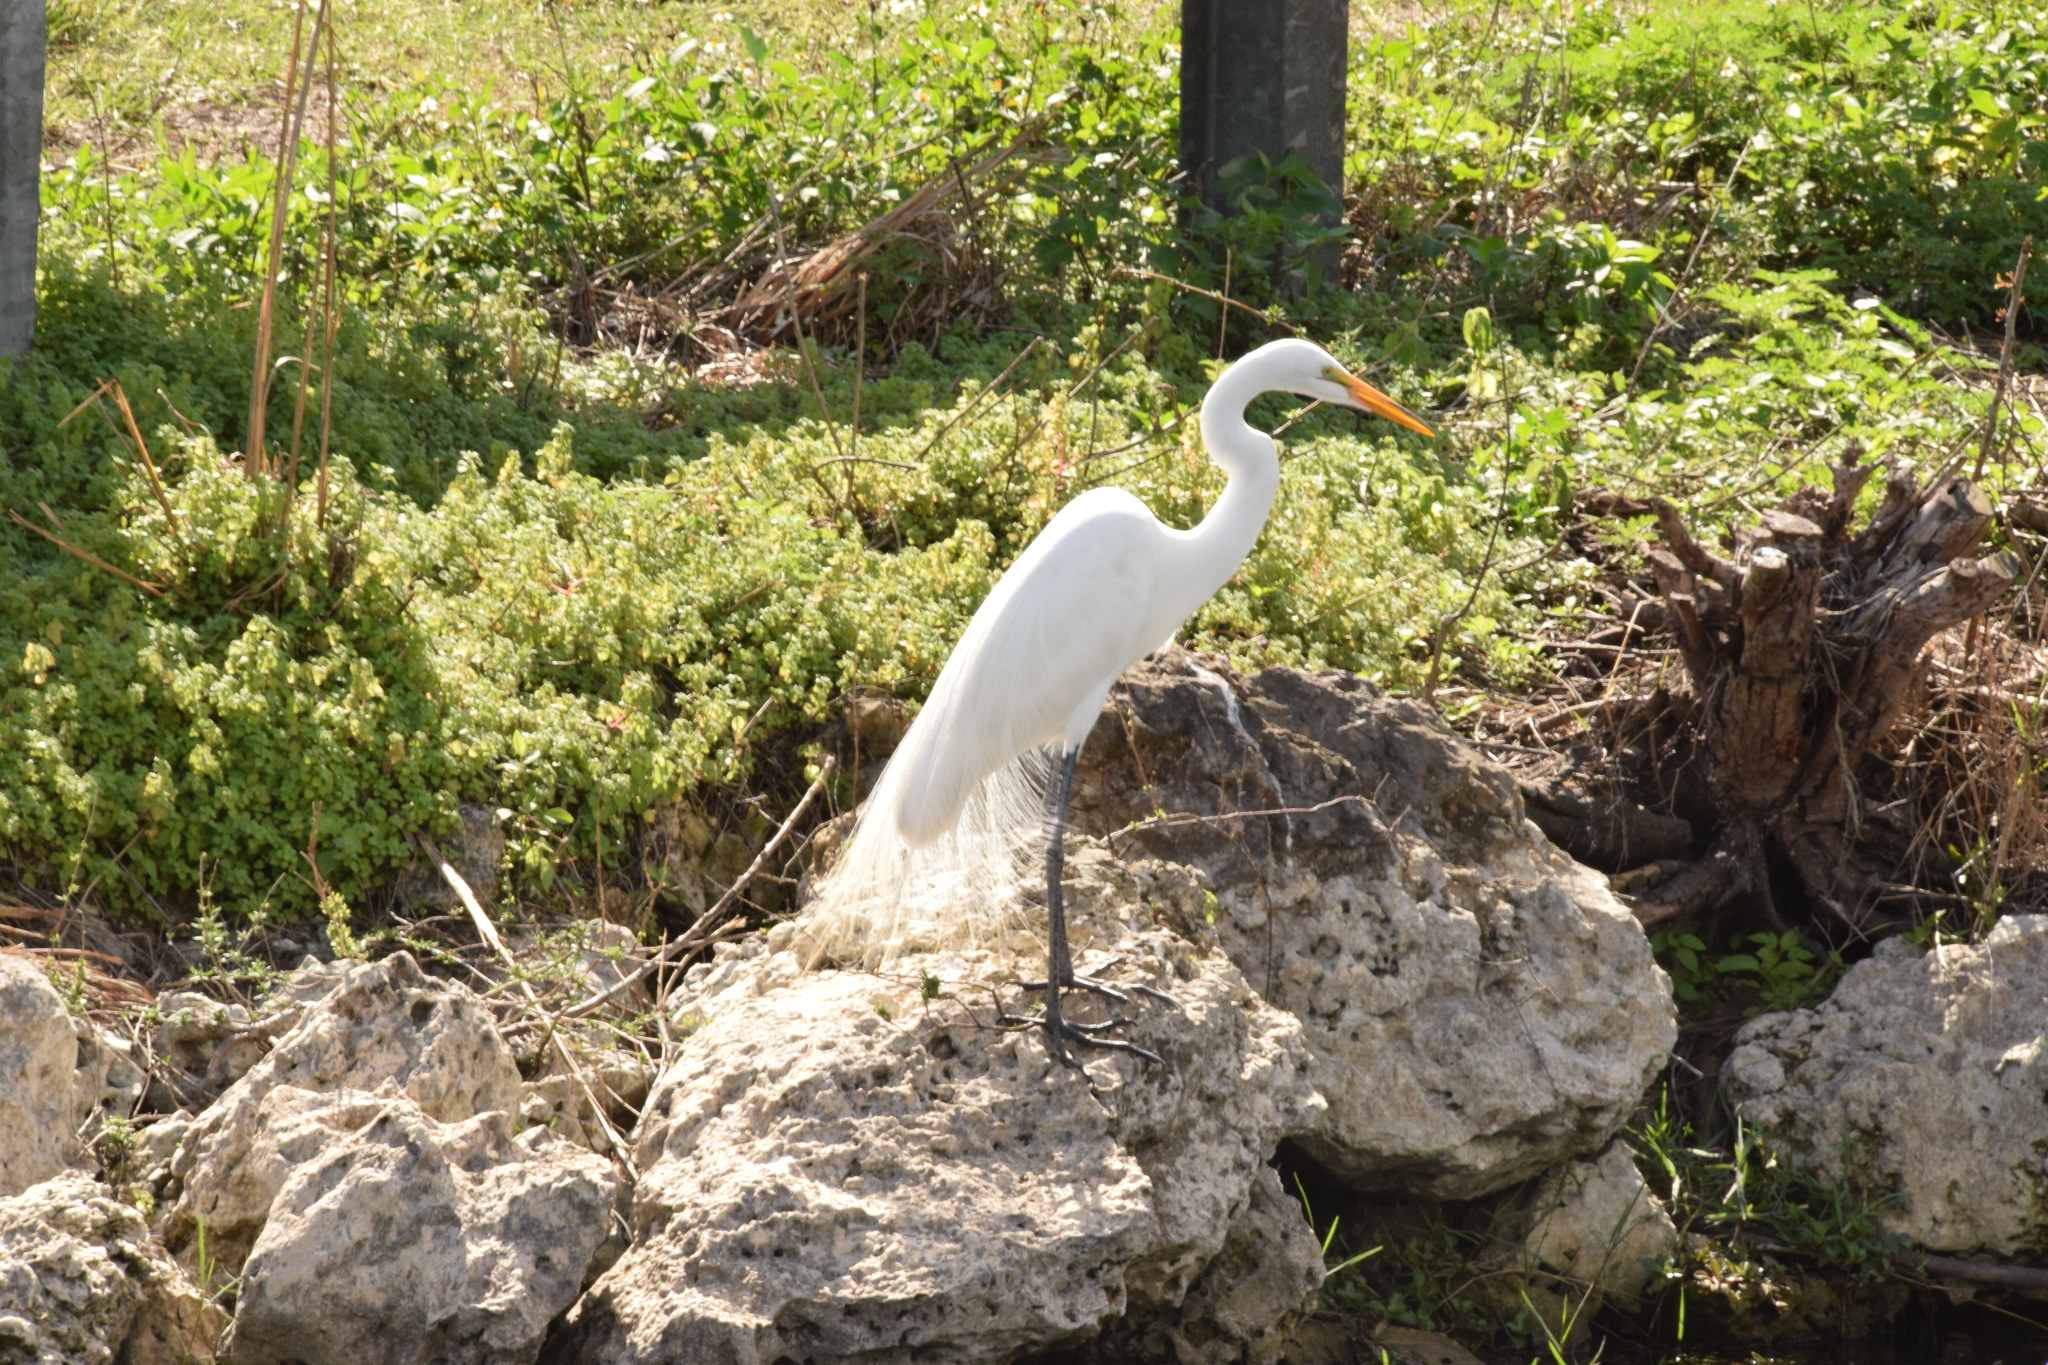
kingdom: Animalia
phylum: Chordata
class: Aves
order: Pelecaniformes
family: Ardeidae
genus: Ardea
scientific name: Ardea alba
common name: Great egret
